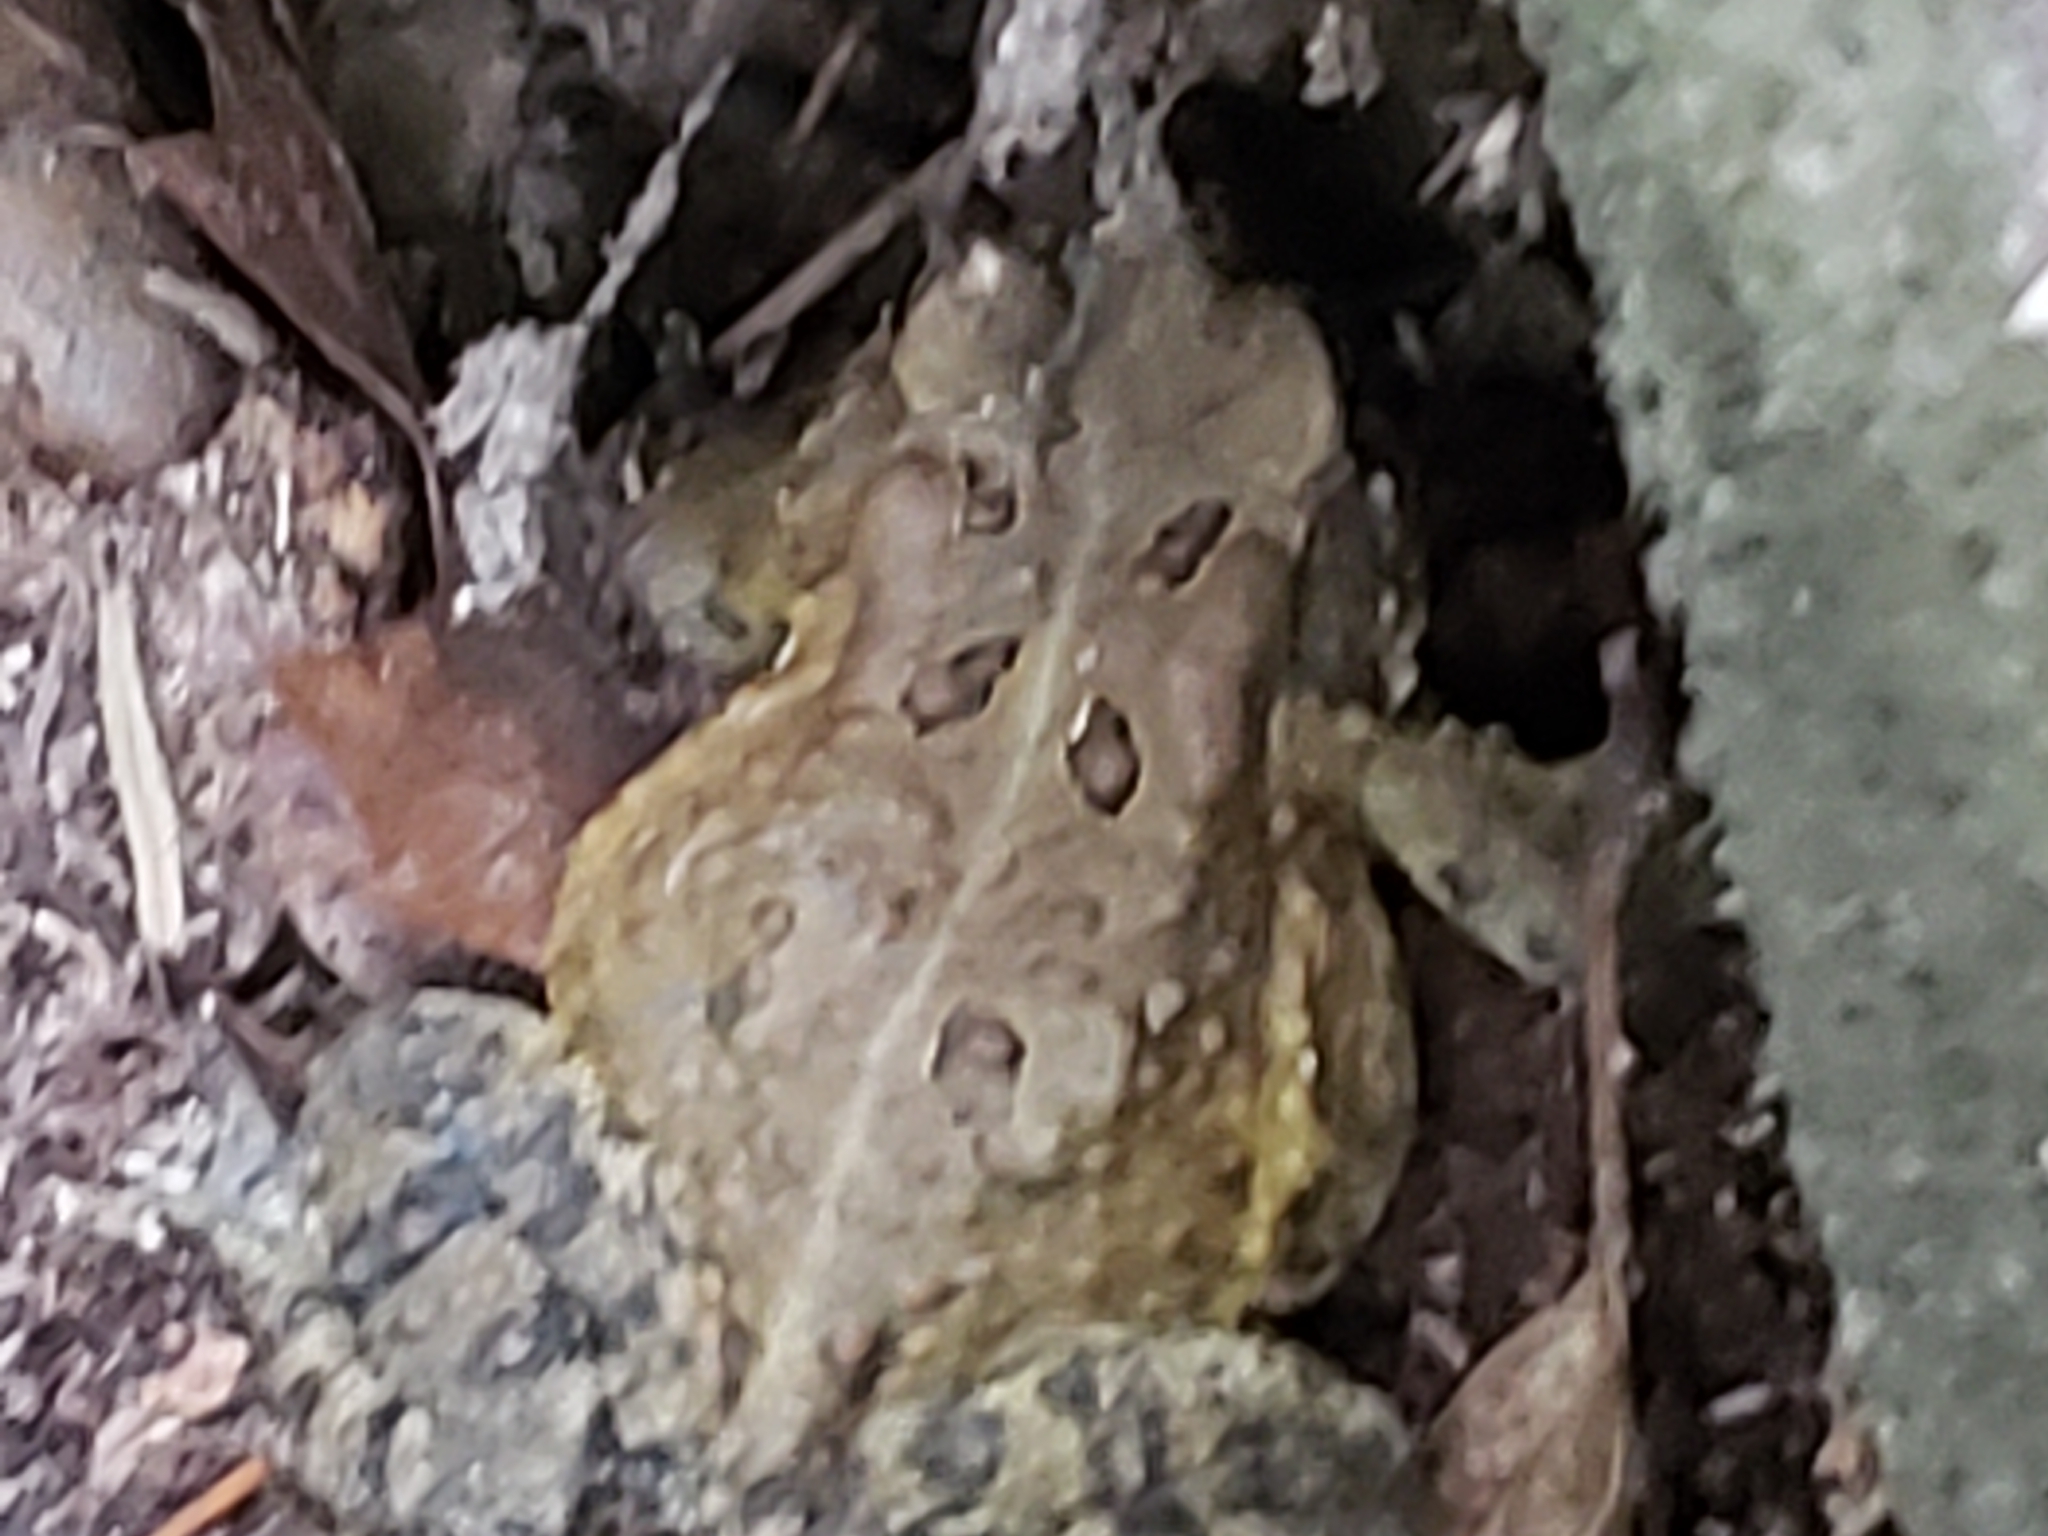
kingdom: Animalia
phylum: Chordata
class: Amphibia
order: Anura
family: Bufonidae
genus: Anaxyrus
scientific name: Anaxyrus americanus
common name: American toad
